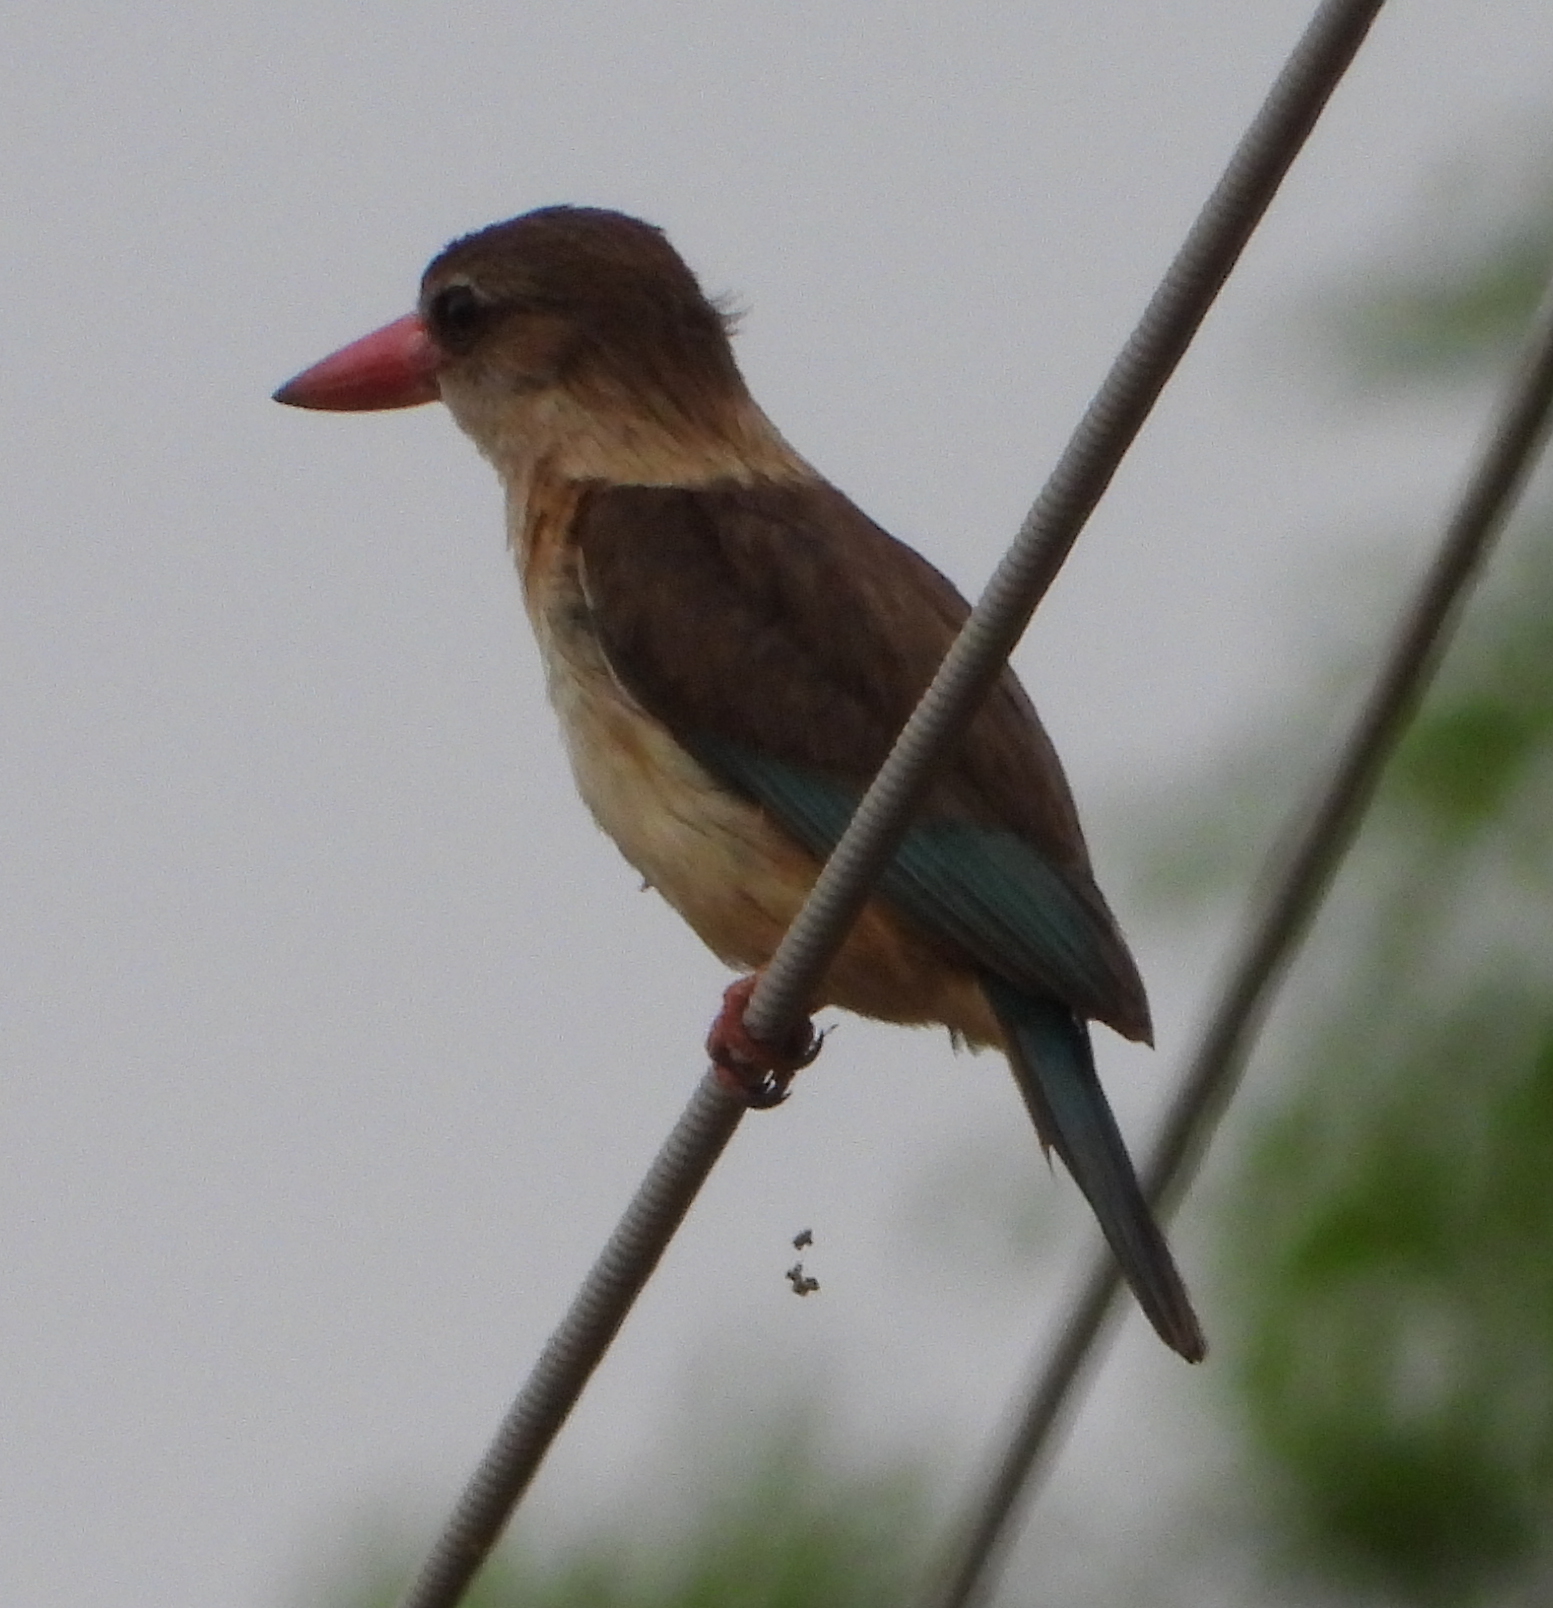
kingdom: Animalia
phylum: Chordata
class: Aves
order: Coraciiformes
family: Alcedinidae
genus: Halcyon
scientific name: Halcyon albiventris
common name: Brown-hooded kingfisher
